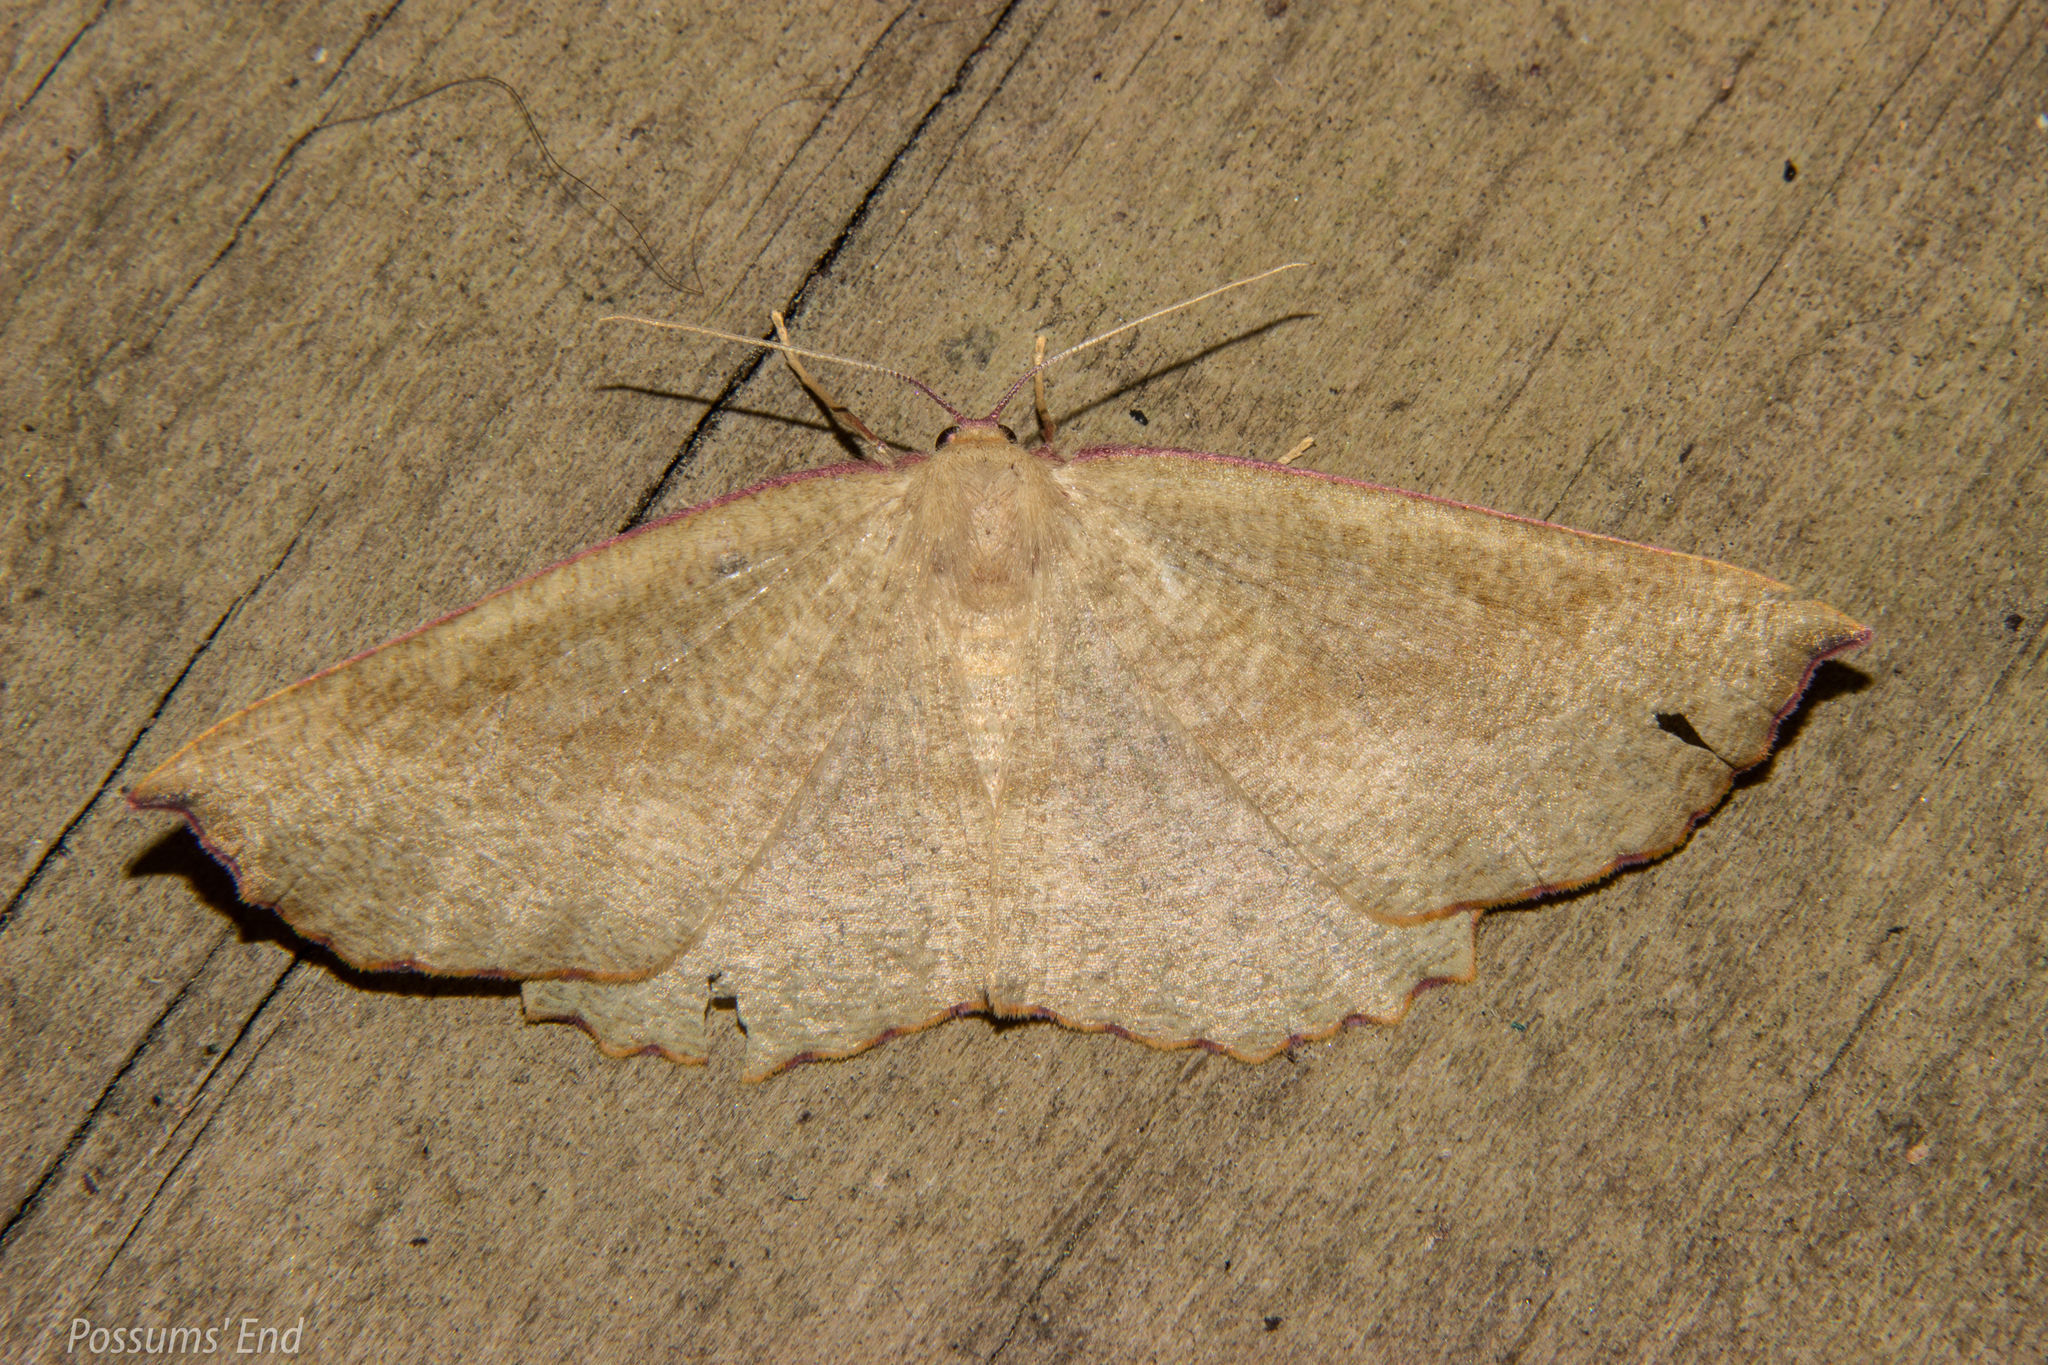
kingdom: Animalia
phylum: Arthropoda
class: Insecta
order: Lepidoptera
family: Geometridae
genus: Xyridacma
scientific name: Xyridacma alectoraria
